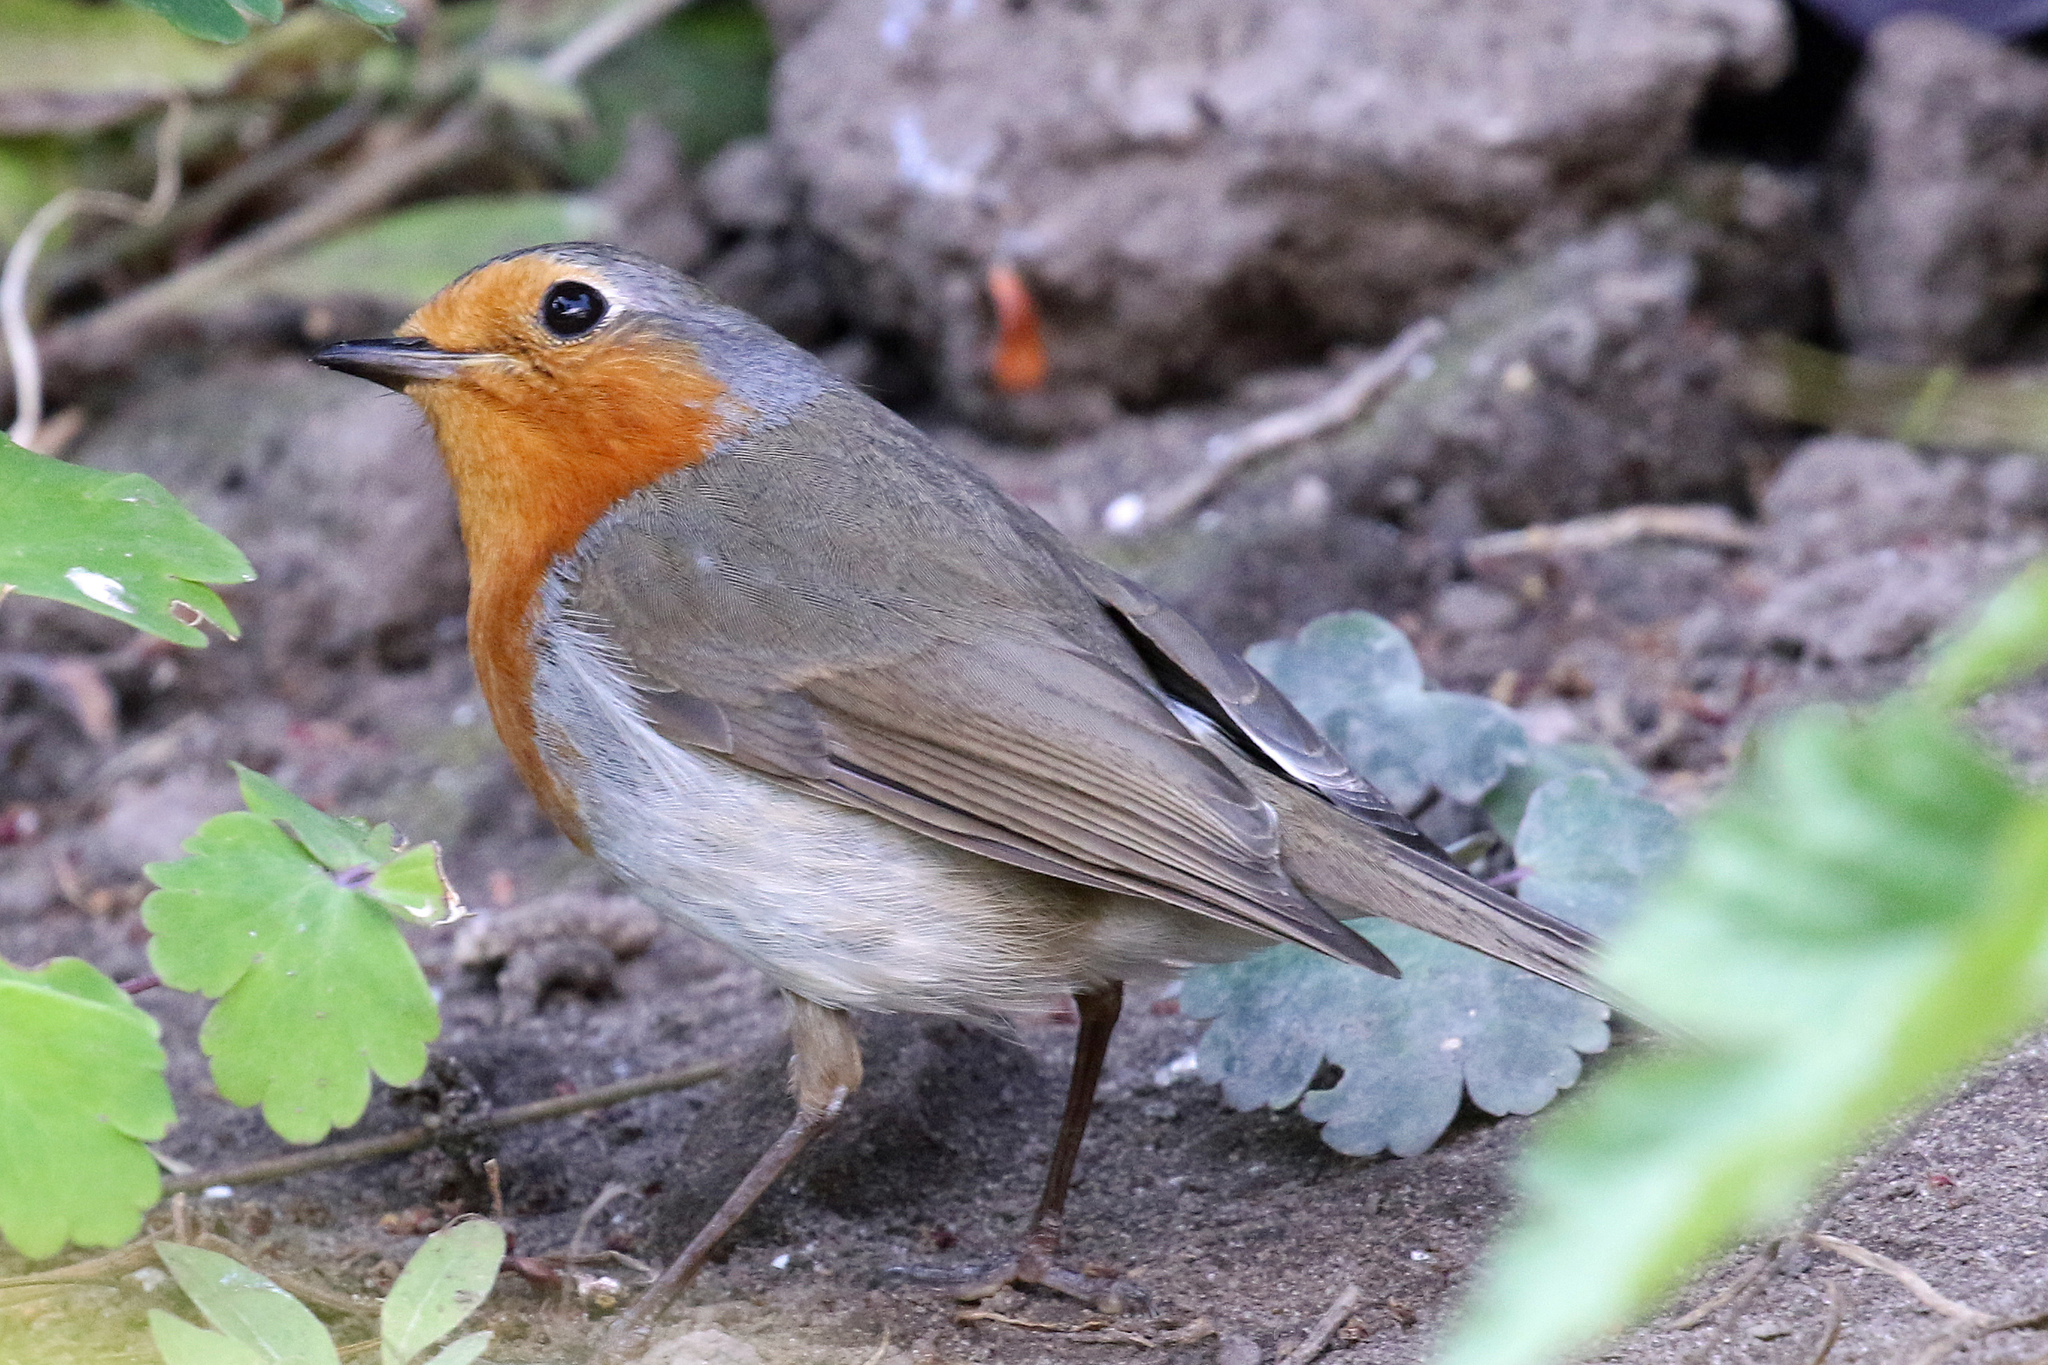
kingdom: Animalia
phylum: Chordata
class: Aves
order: Passeriformes
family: Muscicapidae
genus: Erithacus
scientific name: Erithacus rubecula
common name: European robin
